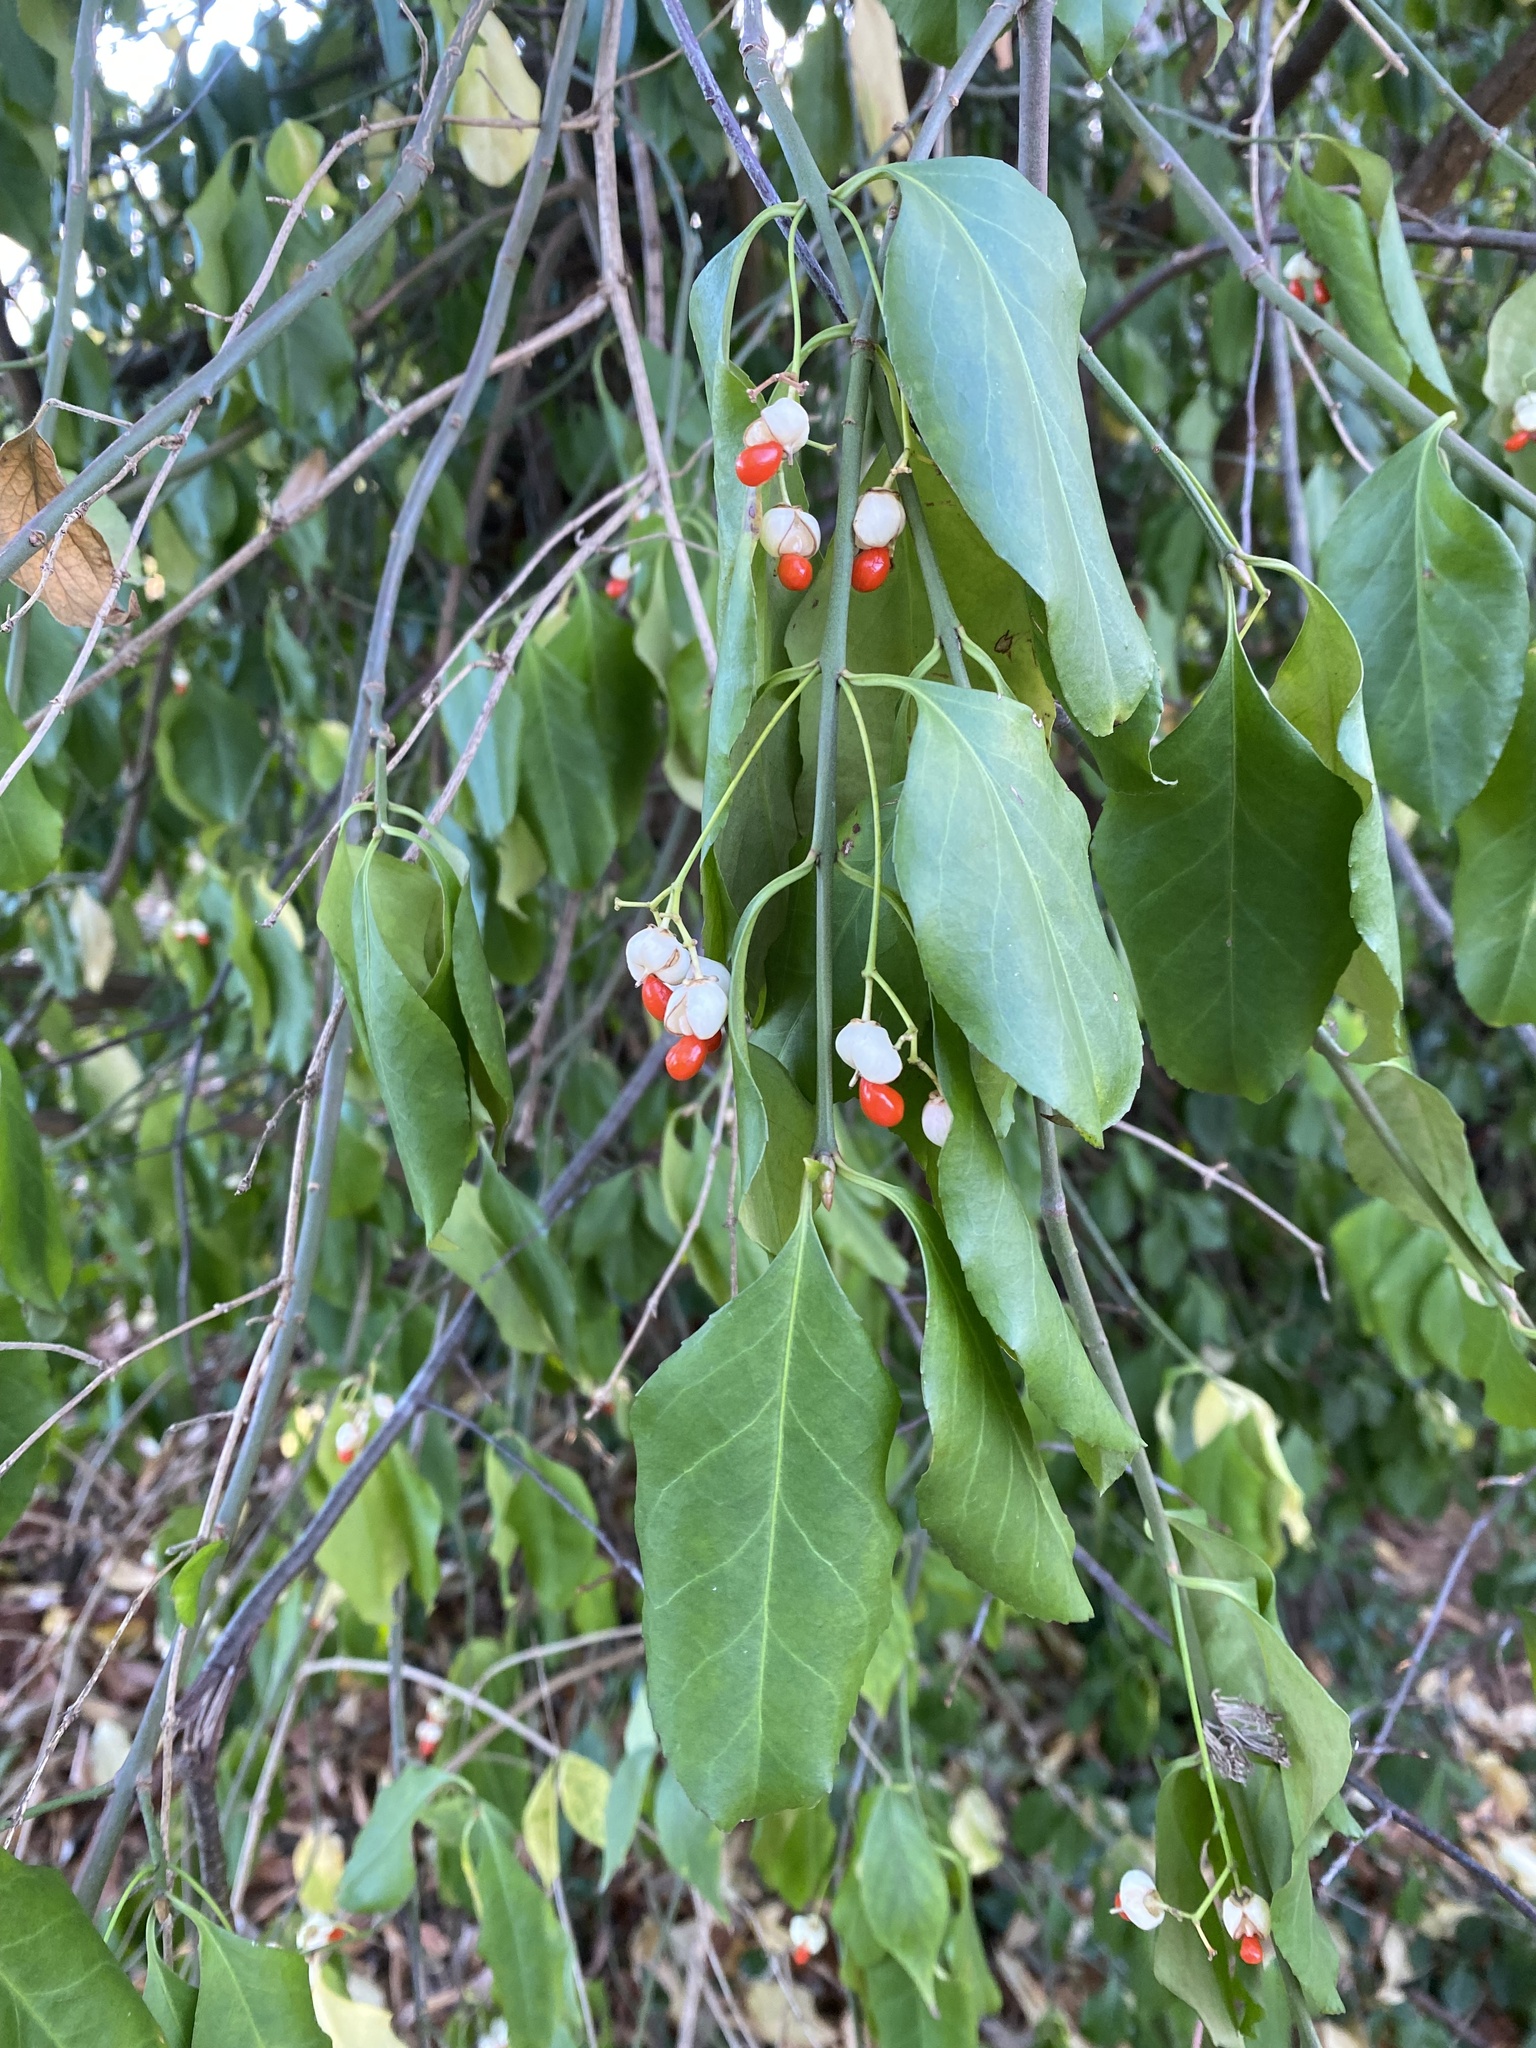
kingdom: Plantae
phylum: Tracheophyta
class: Magnoliopsida
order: Celastrales
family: Celastraceae
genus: Euonymus
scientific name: Euonymus fortunei
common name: Climbing euonymus
